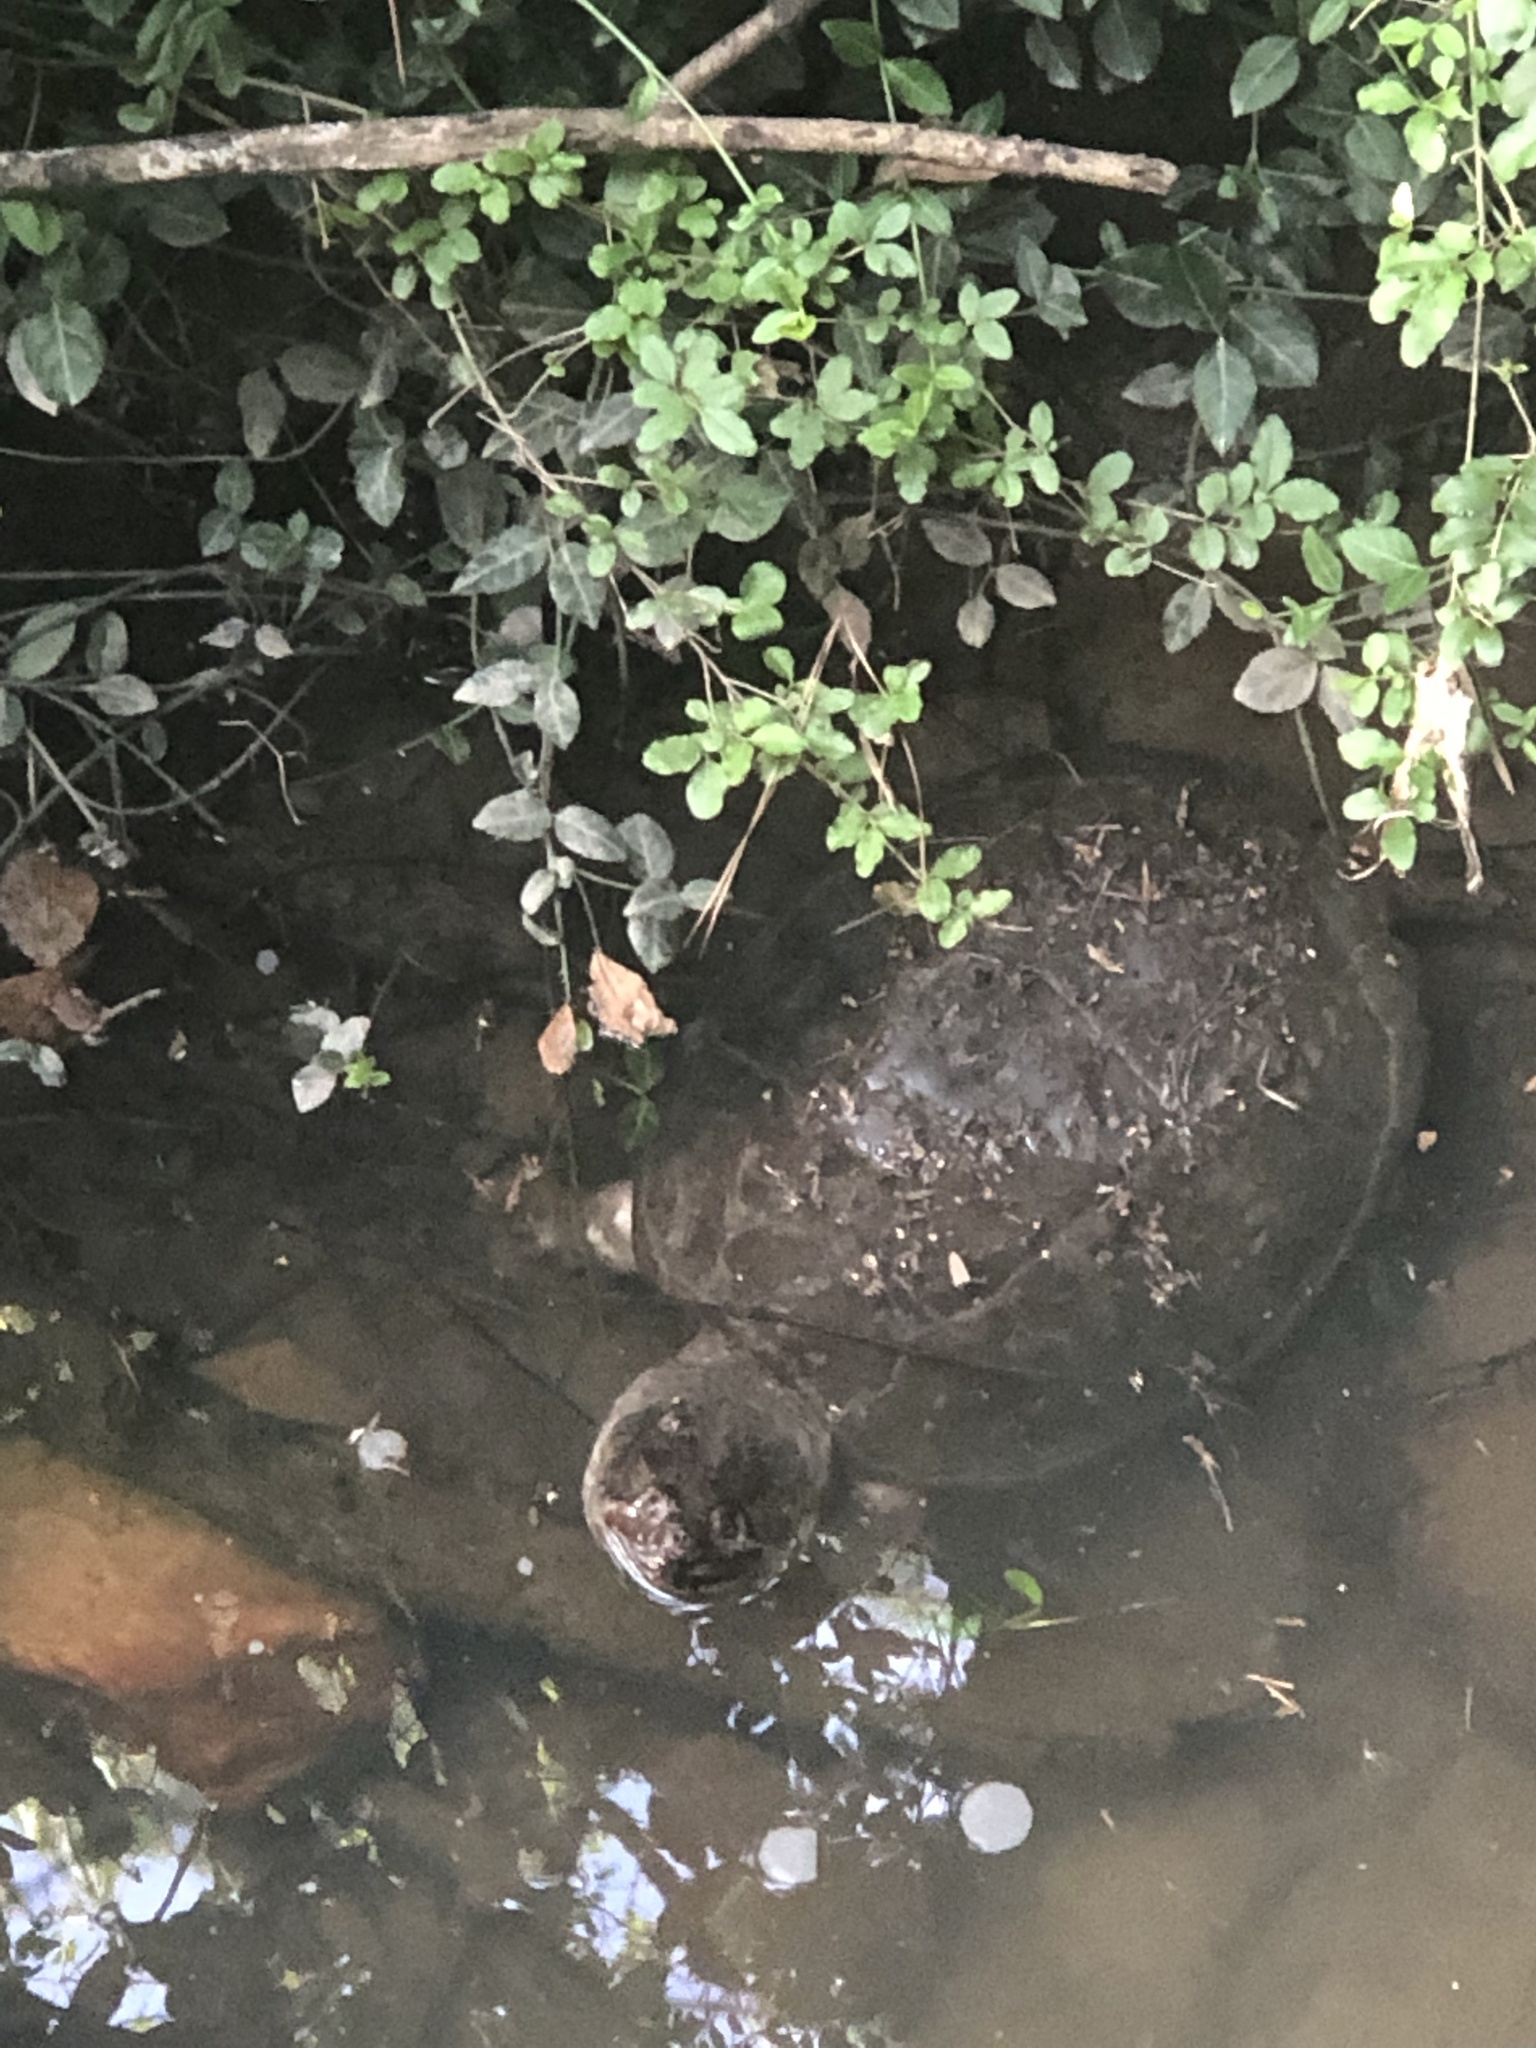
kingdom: Animalia
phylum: Chordata
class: Testudines
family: Chelydridae
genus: Chelydra
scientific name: Chelydra serpentina
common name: Common snapping turtle
